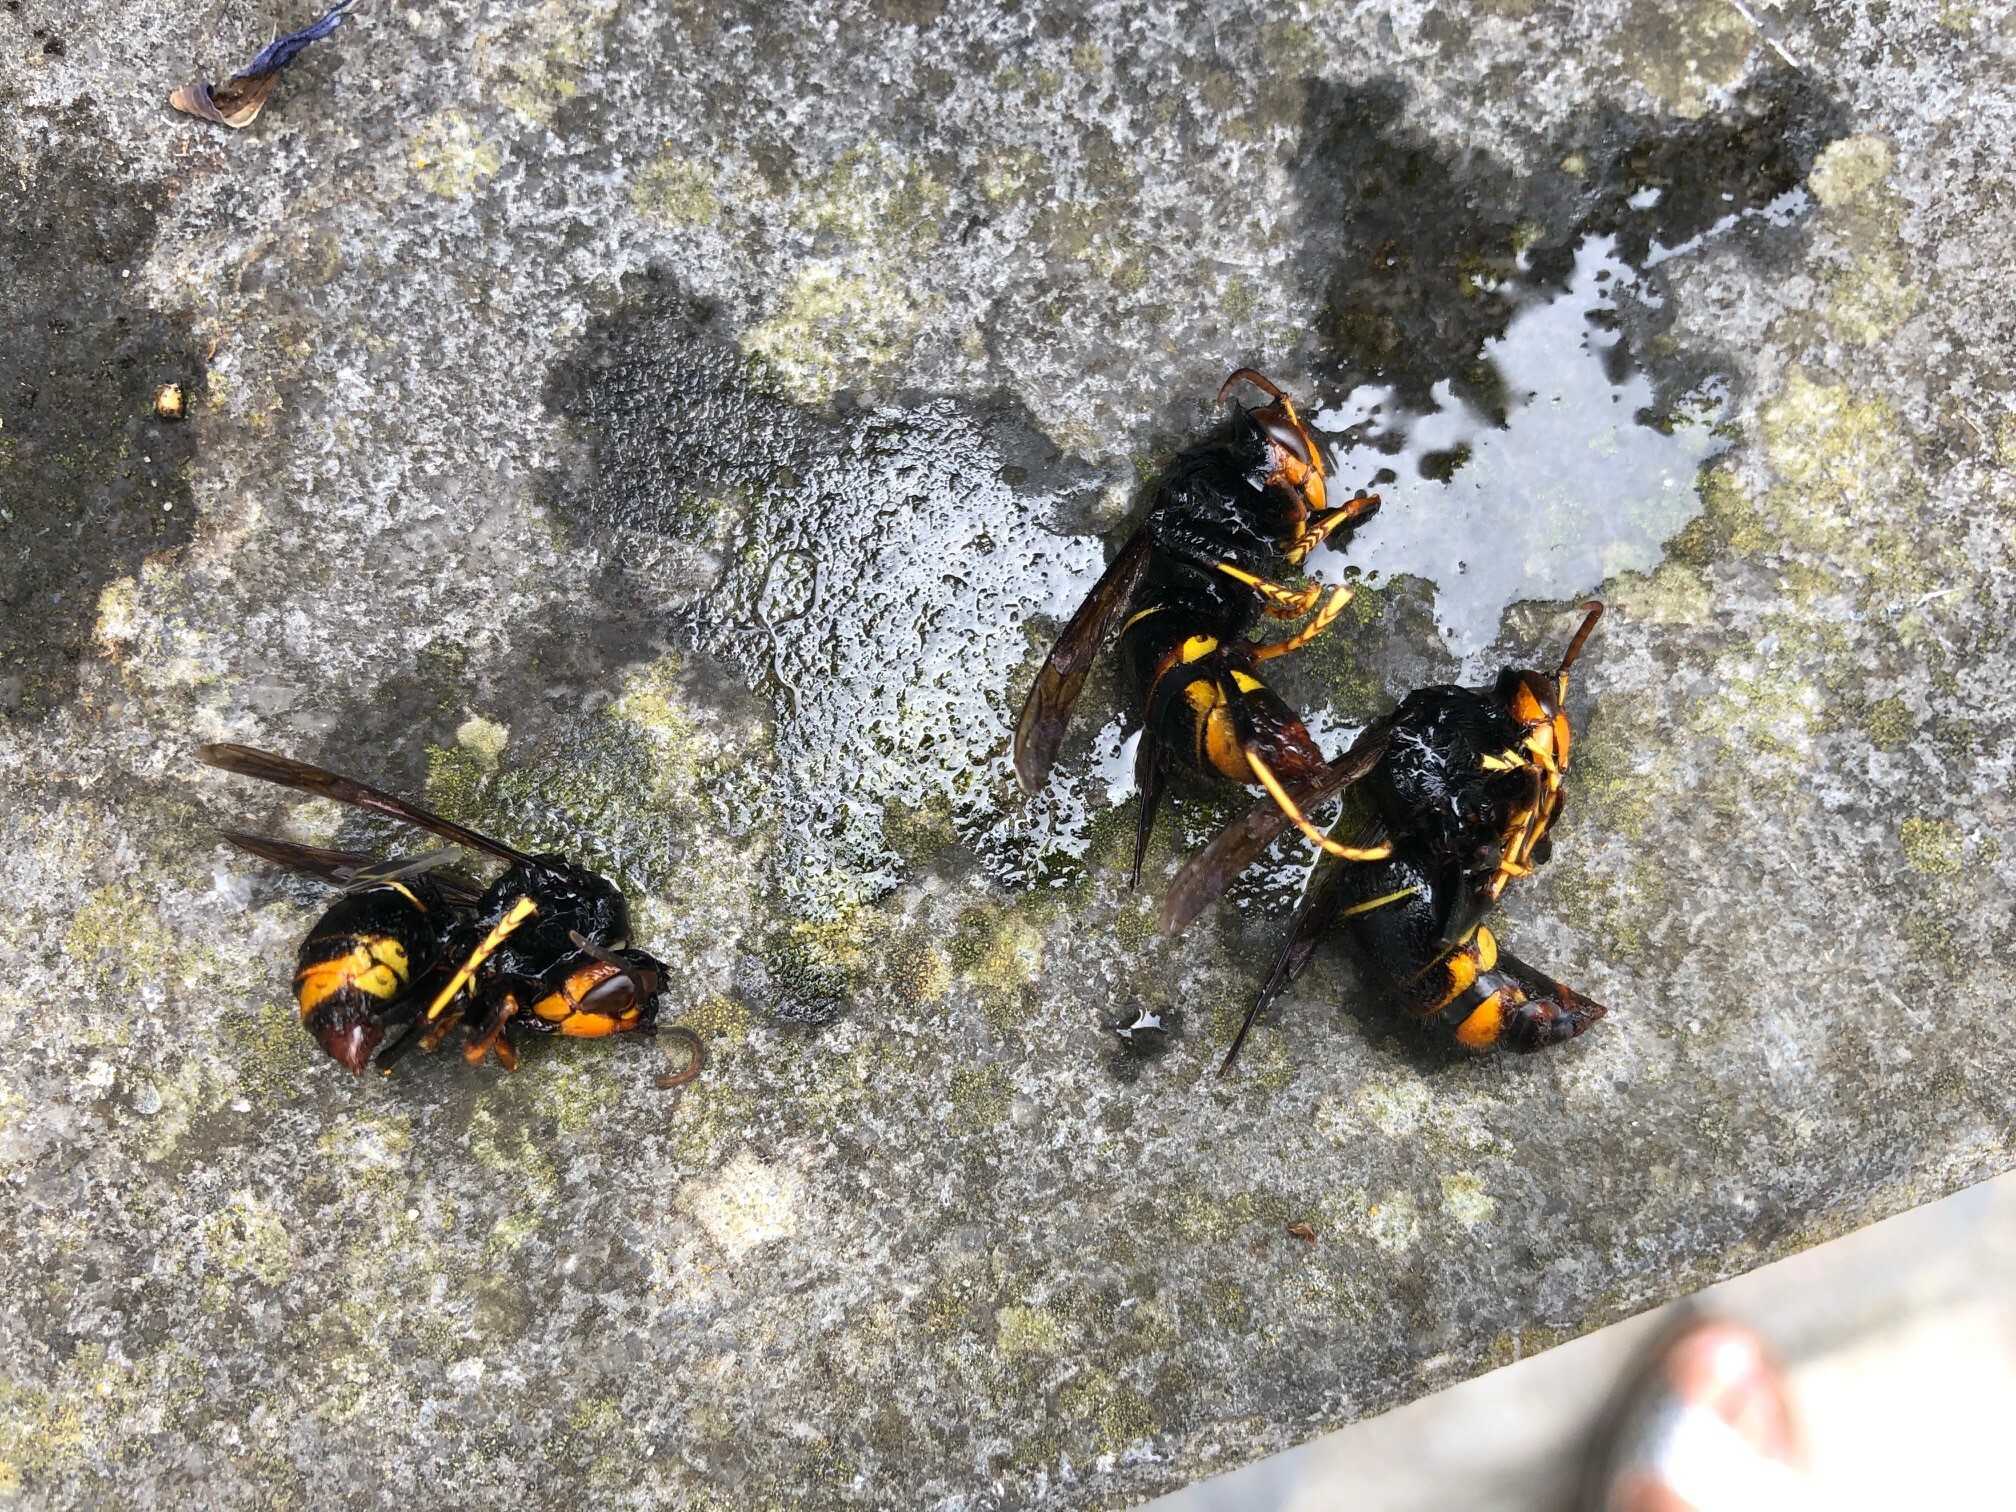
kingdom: Animalia
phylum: Arthropoda
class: Insecta
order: Hymenoptera
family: Vespidae
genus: Vespa
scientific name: Vespa velutina
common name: Asian hornet
